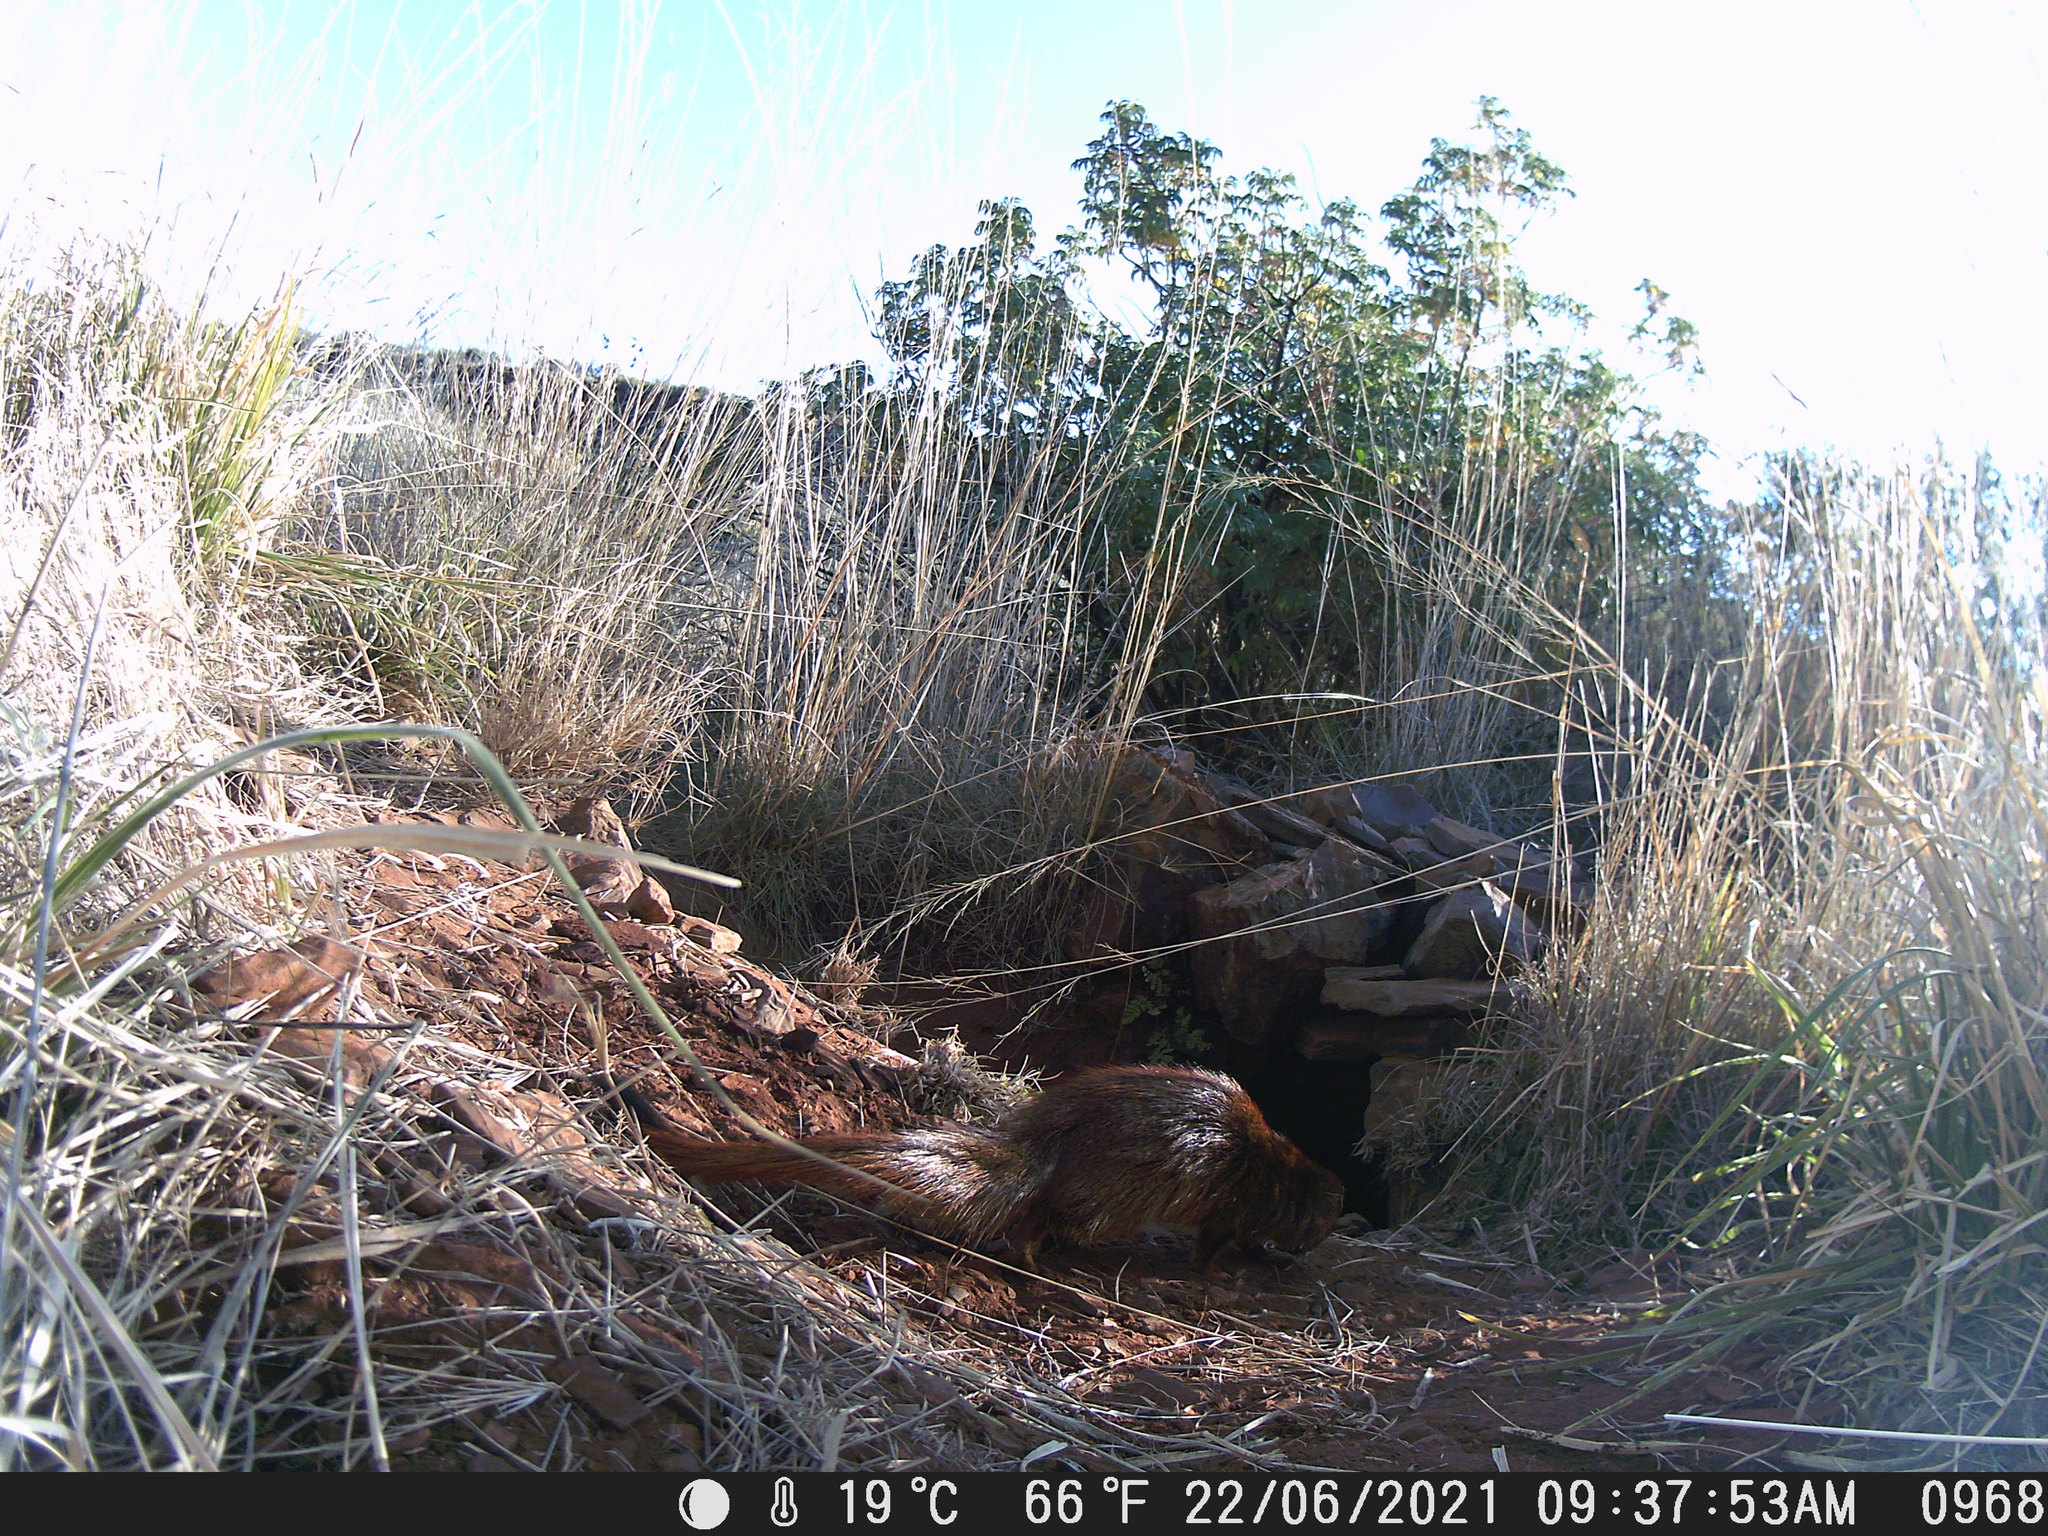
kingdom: Animalia
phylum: Chordata
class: Mammalia
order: Carnivora
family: Herpestidae
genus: Galerella
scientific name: Galerella sanguinea
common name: Slender mongoose
